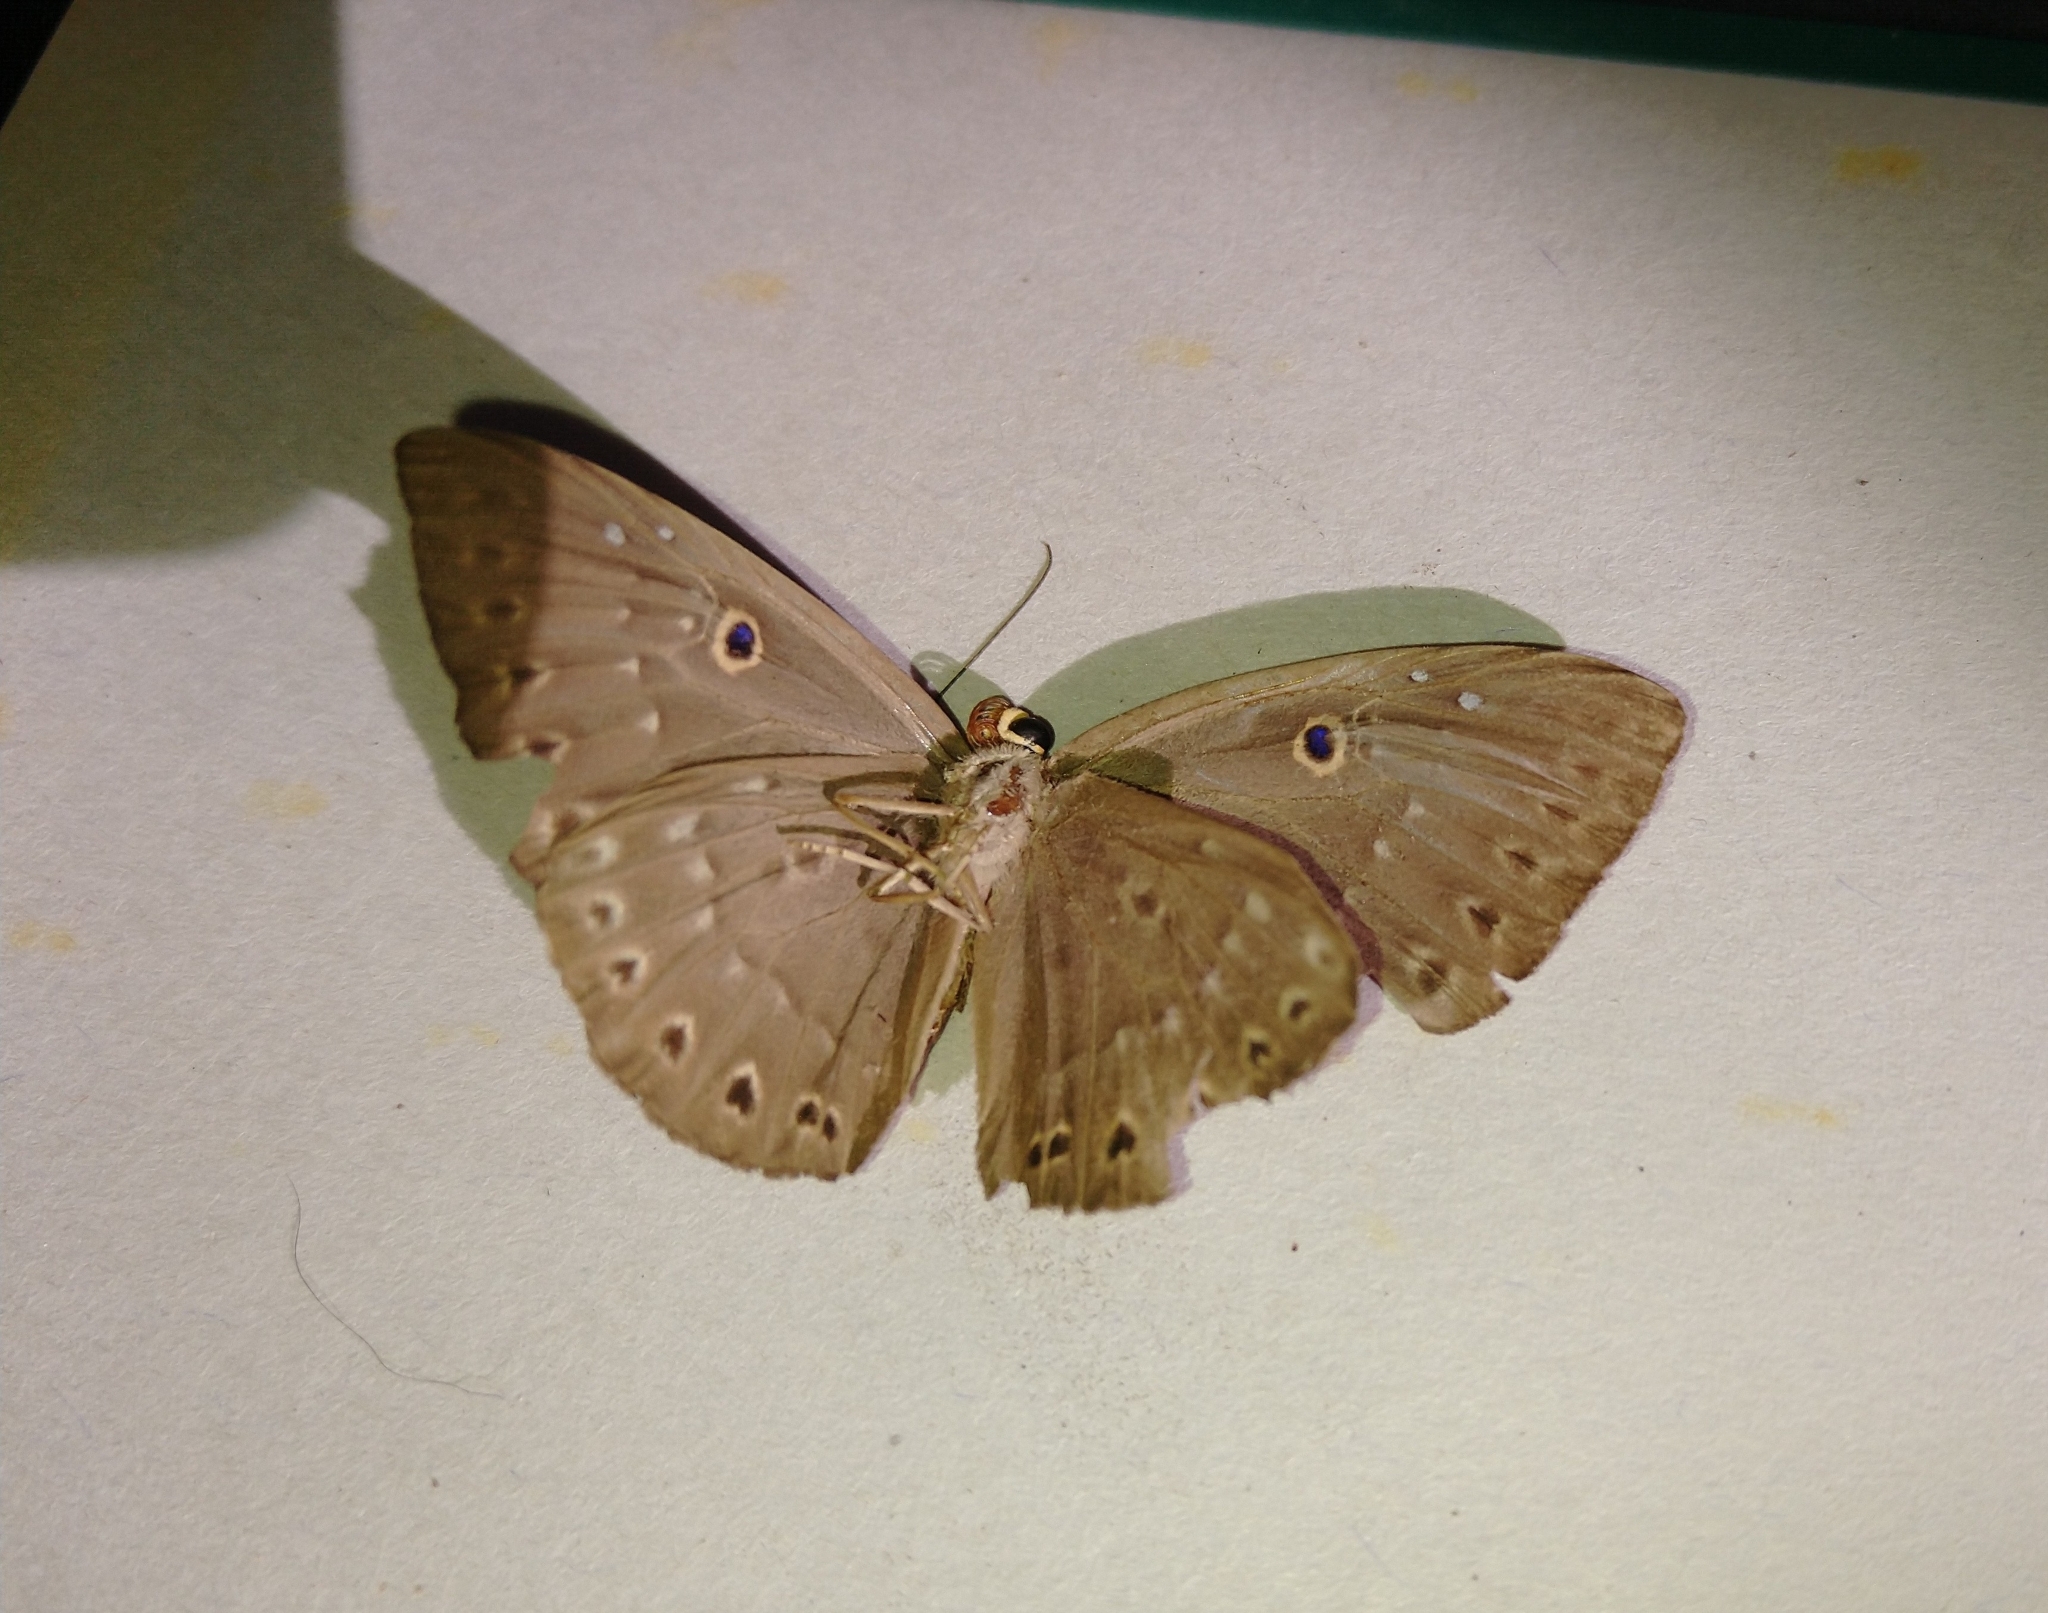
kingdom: Animalia
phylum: Cnidaria
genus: Eurybia
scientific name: Eurybia molochina
